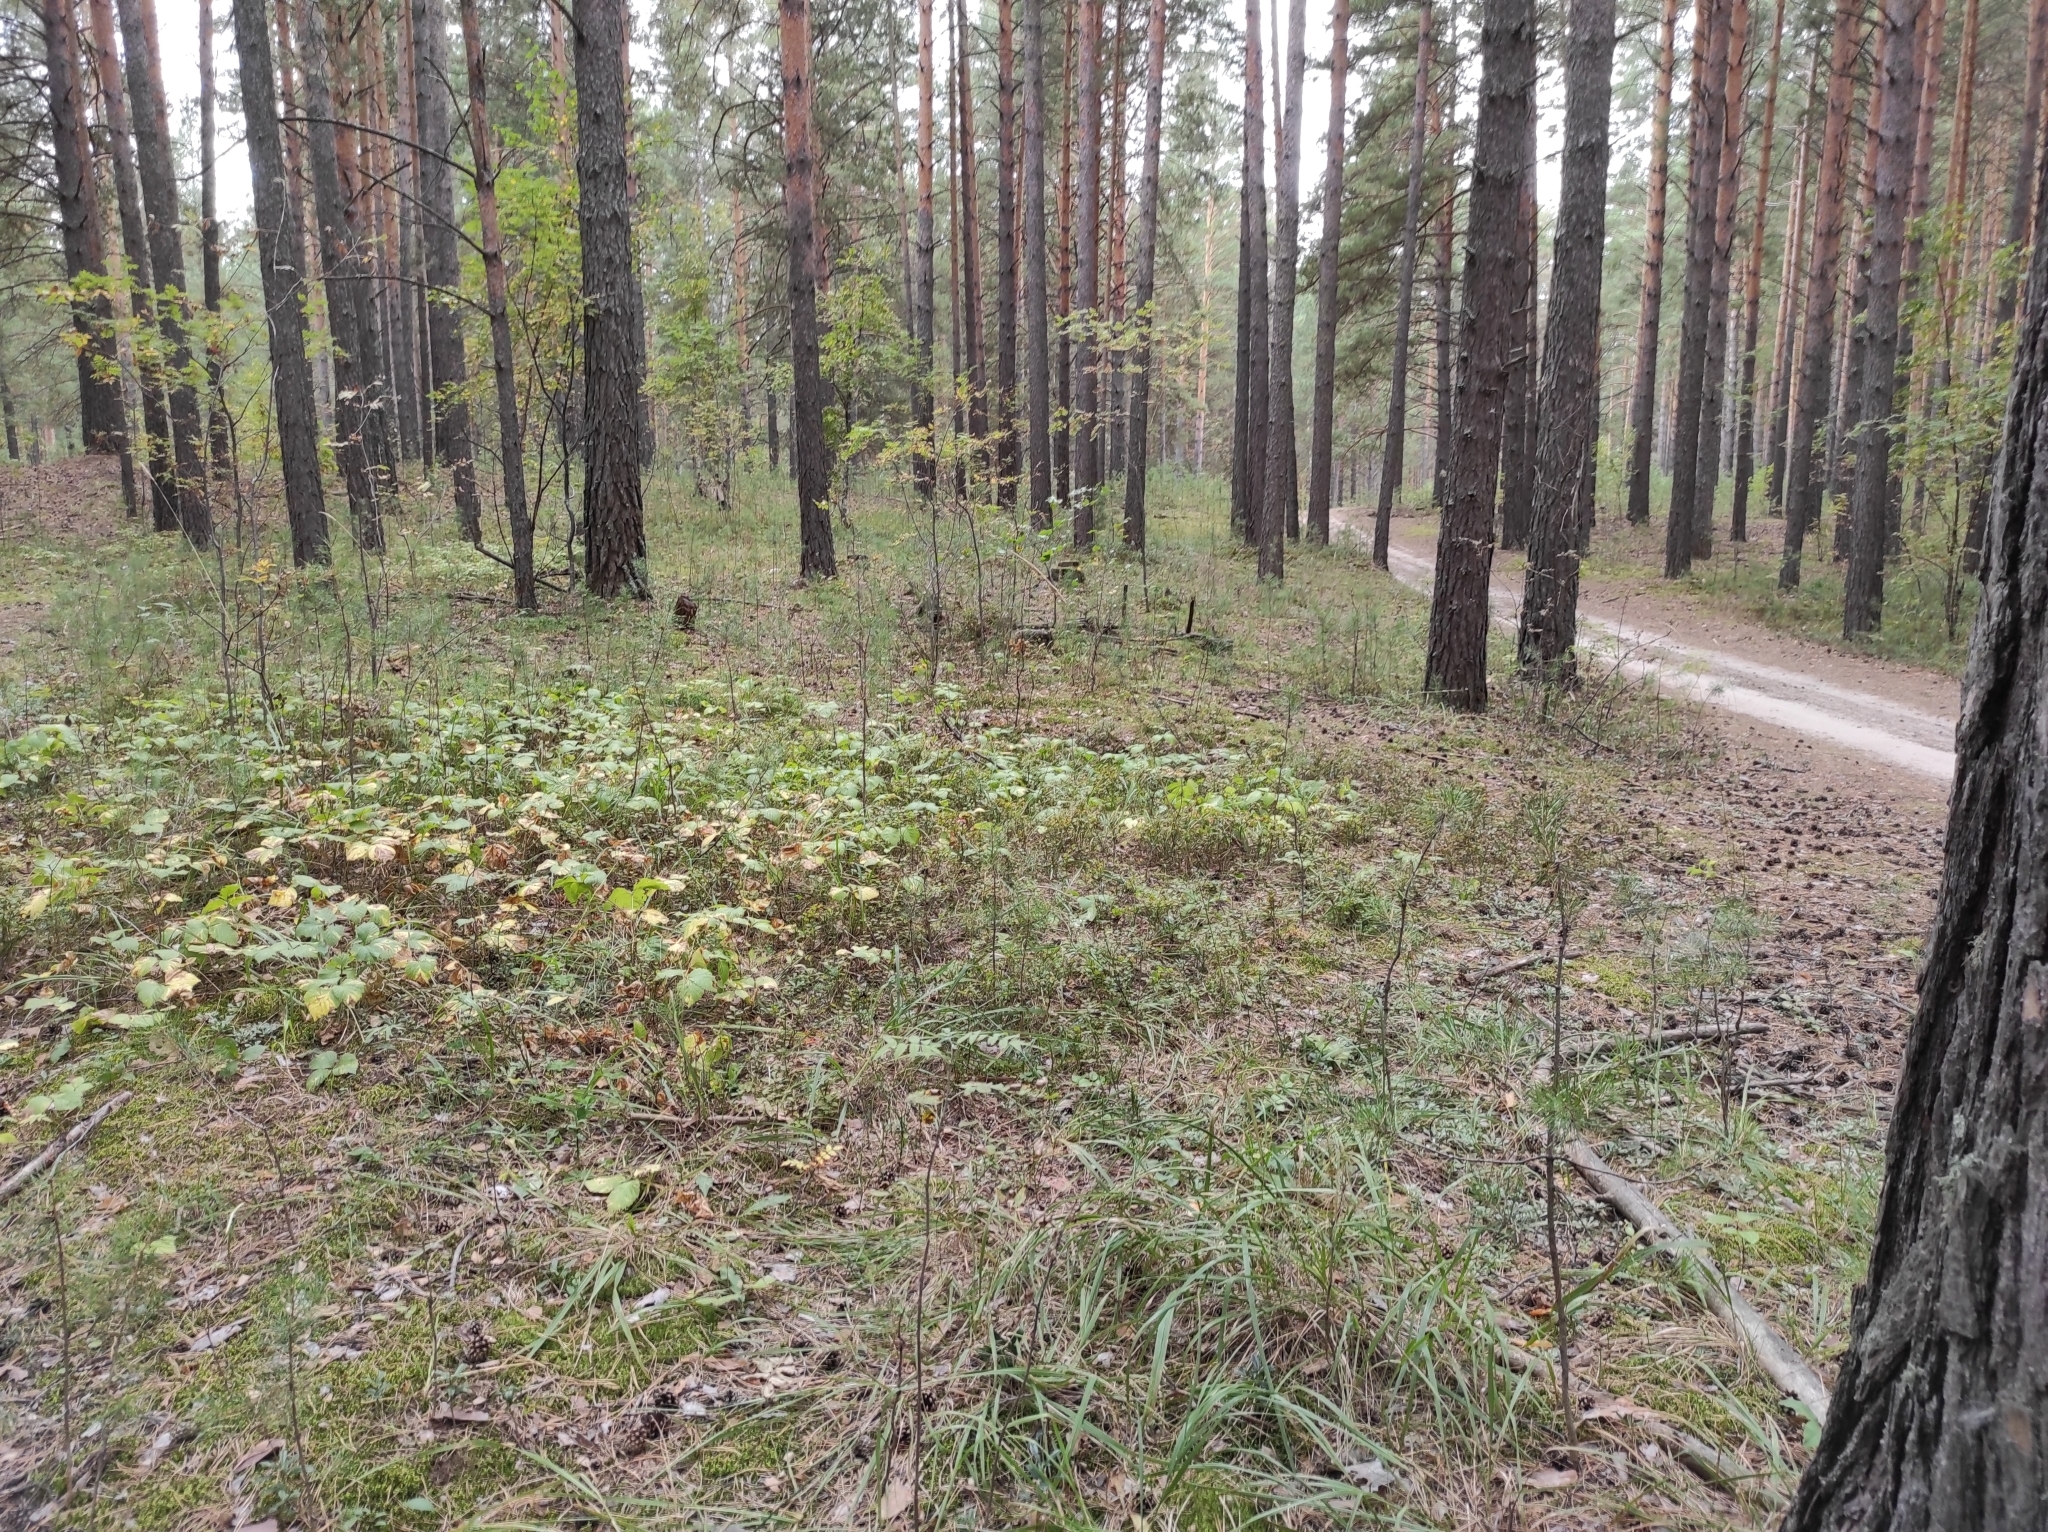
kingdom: Plantae
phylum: Tracheophyta
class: Pinopsida
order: Pinales
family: Pinaceae
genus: Pinus
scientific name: Pinus sylvestris
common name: Scots pine
